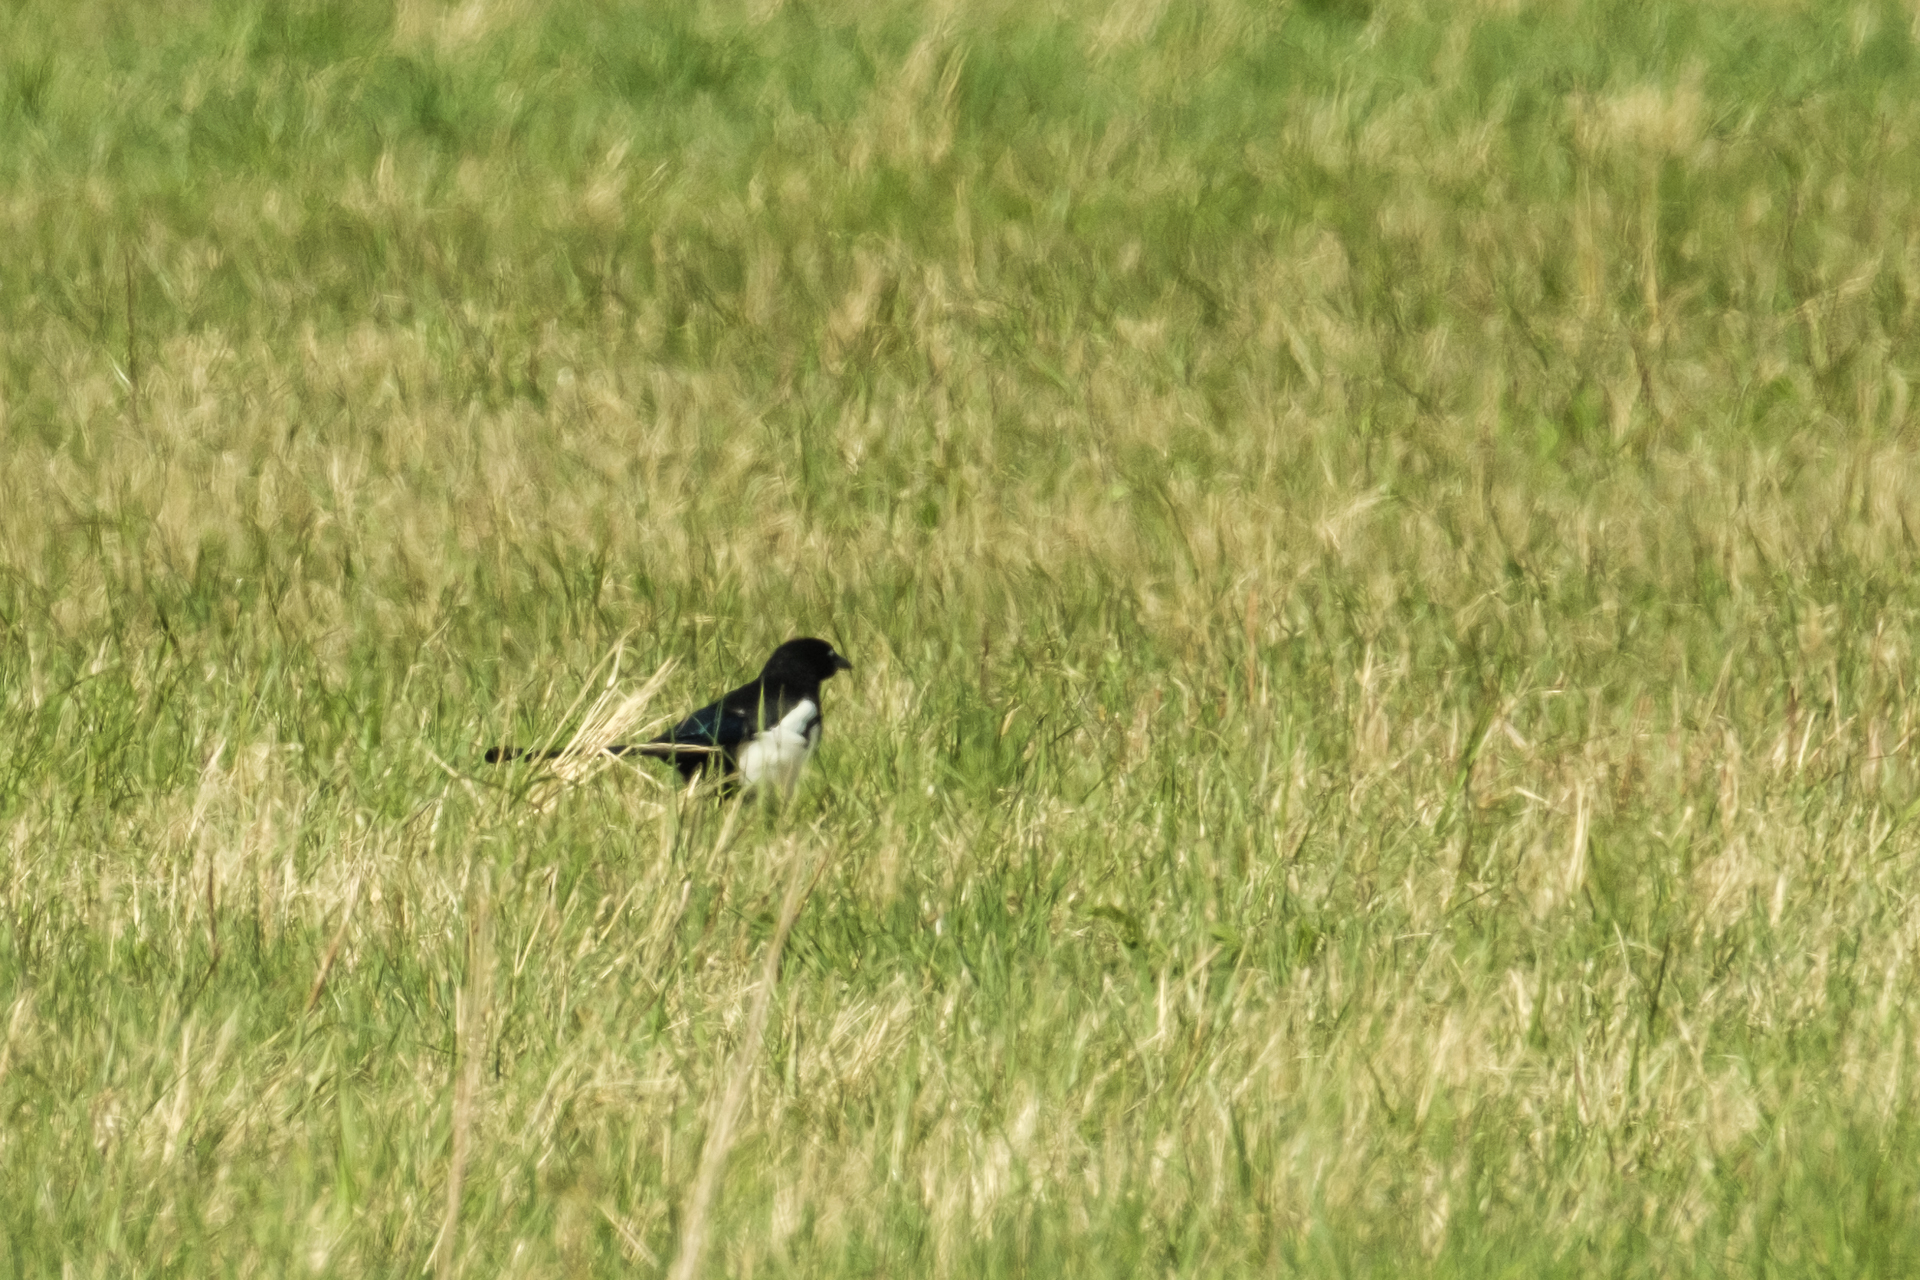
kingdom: Animalia
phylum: Chordata
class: Aves
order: Passeriformes
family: Corvidae
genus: Pica
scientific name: Pica pica
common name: Eurasian magpie
